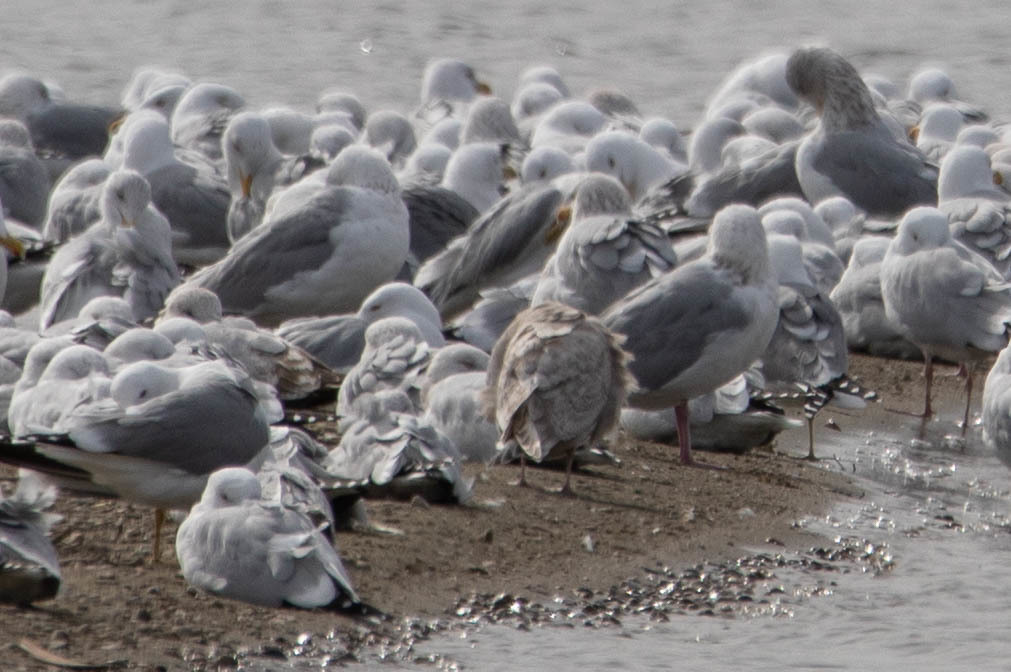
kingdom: Animalia
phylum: Chordata
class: Aves
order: Charadriiformes
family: Laridae
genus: Larus
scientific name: Larus glaucoides
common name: Iceland gull
